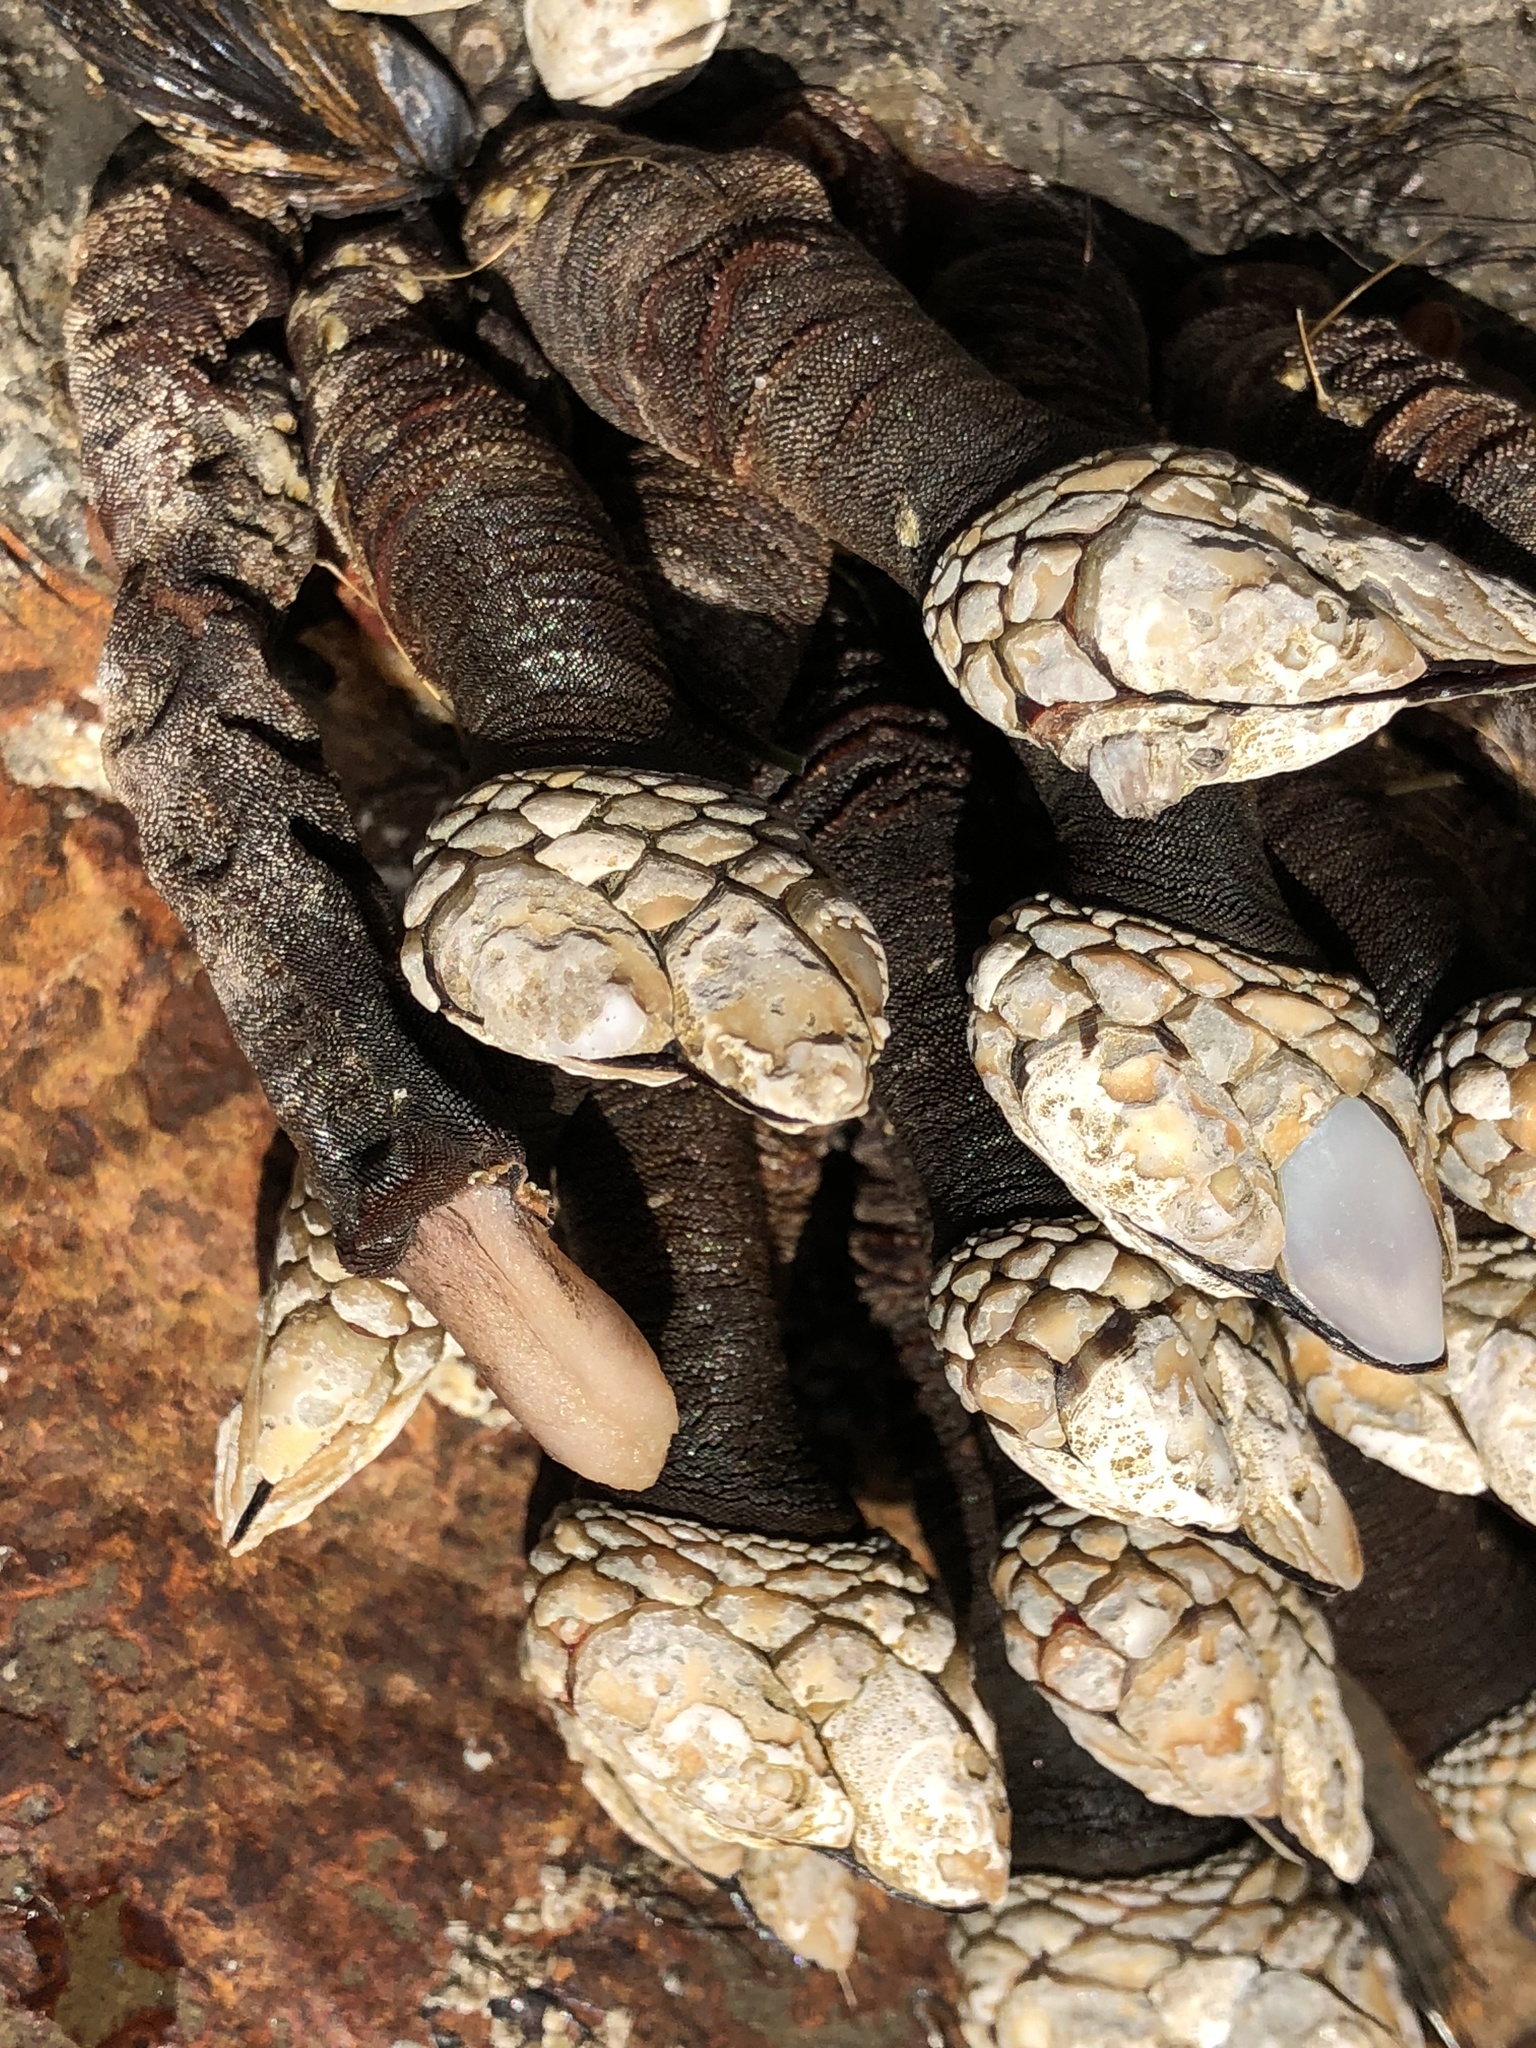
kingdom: Animalia
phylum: Arthropoda
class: Maxillopoda
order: Pedunculata
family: Pollicipedidae
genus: Pollicipes
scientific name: Pollicipes polymerus
